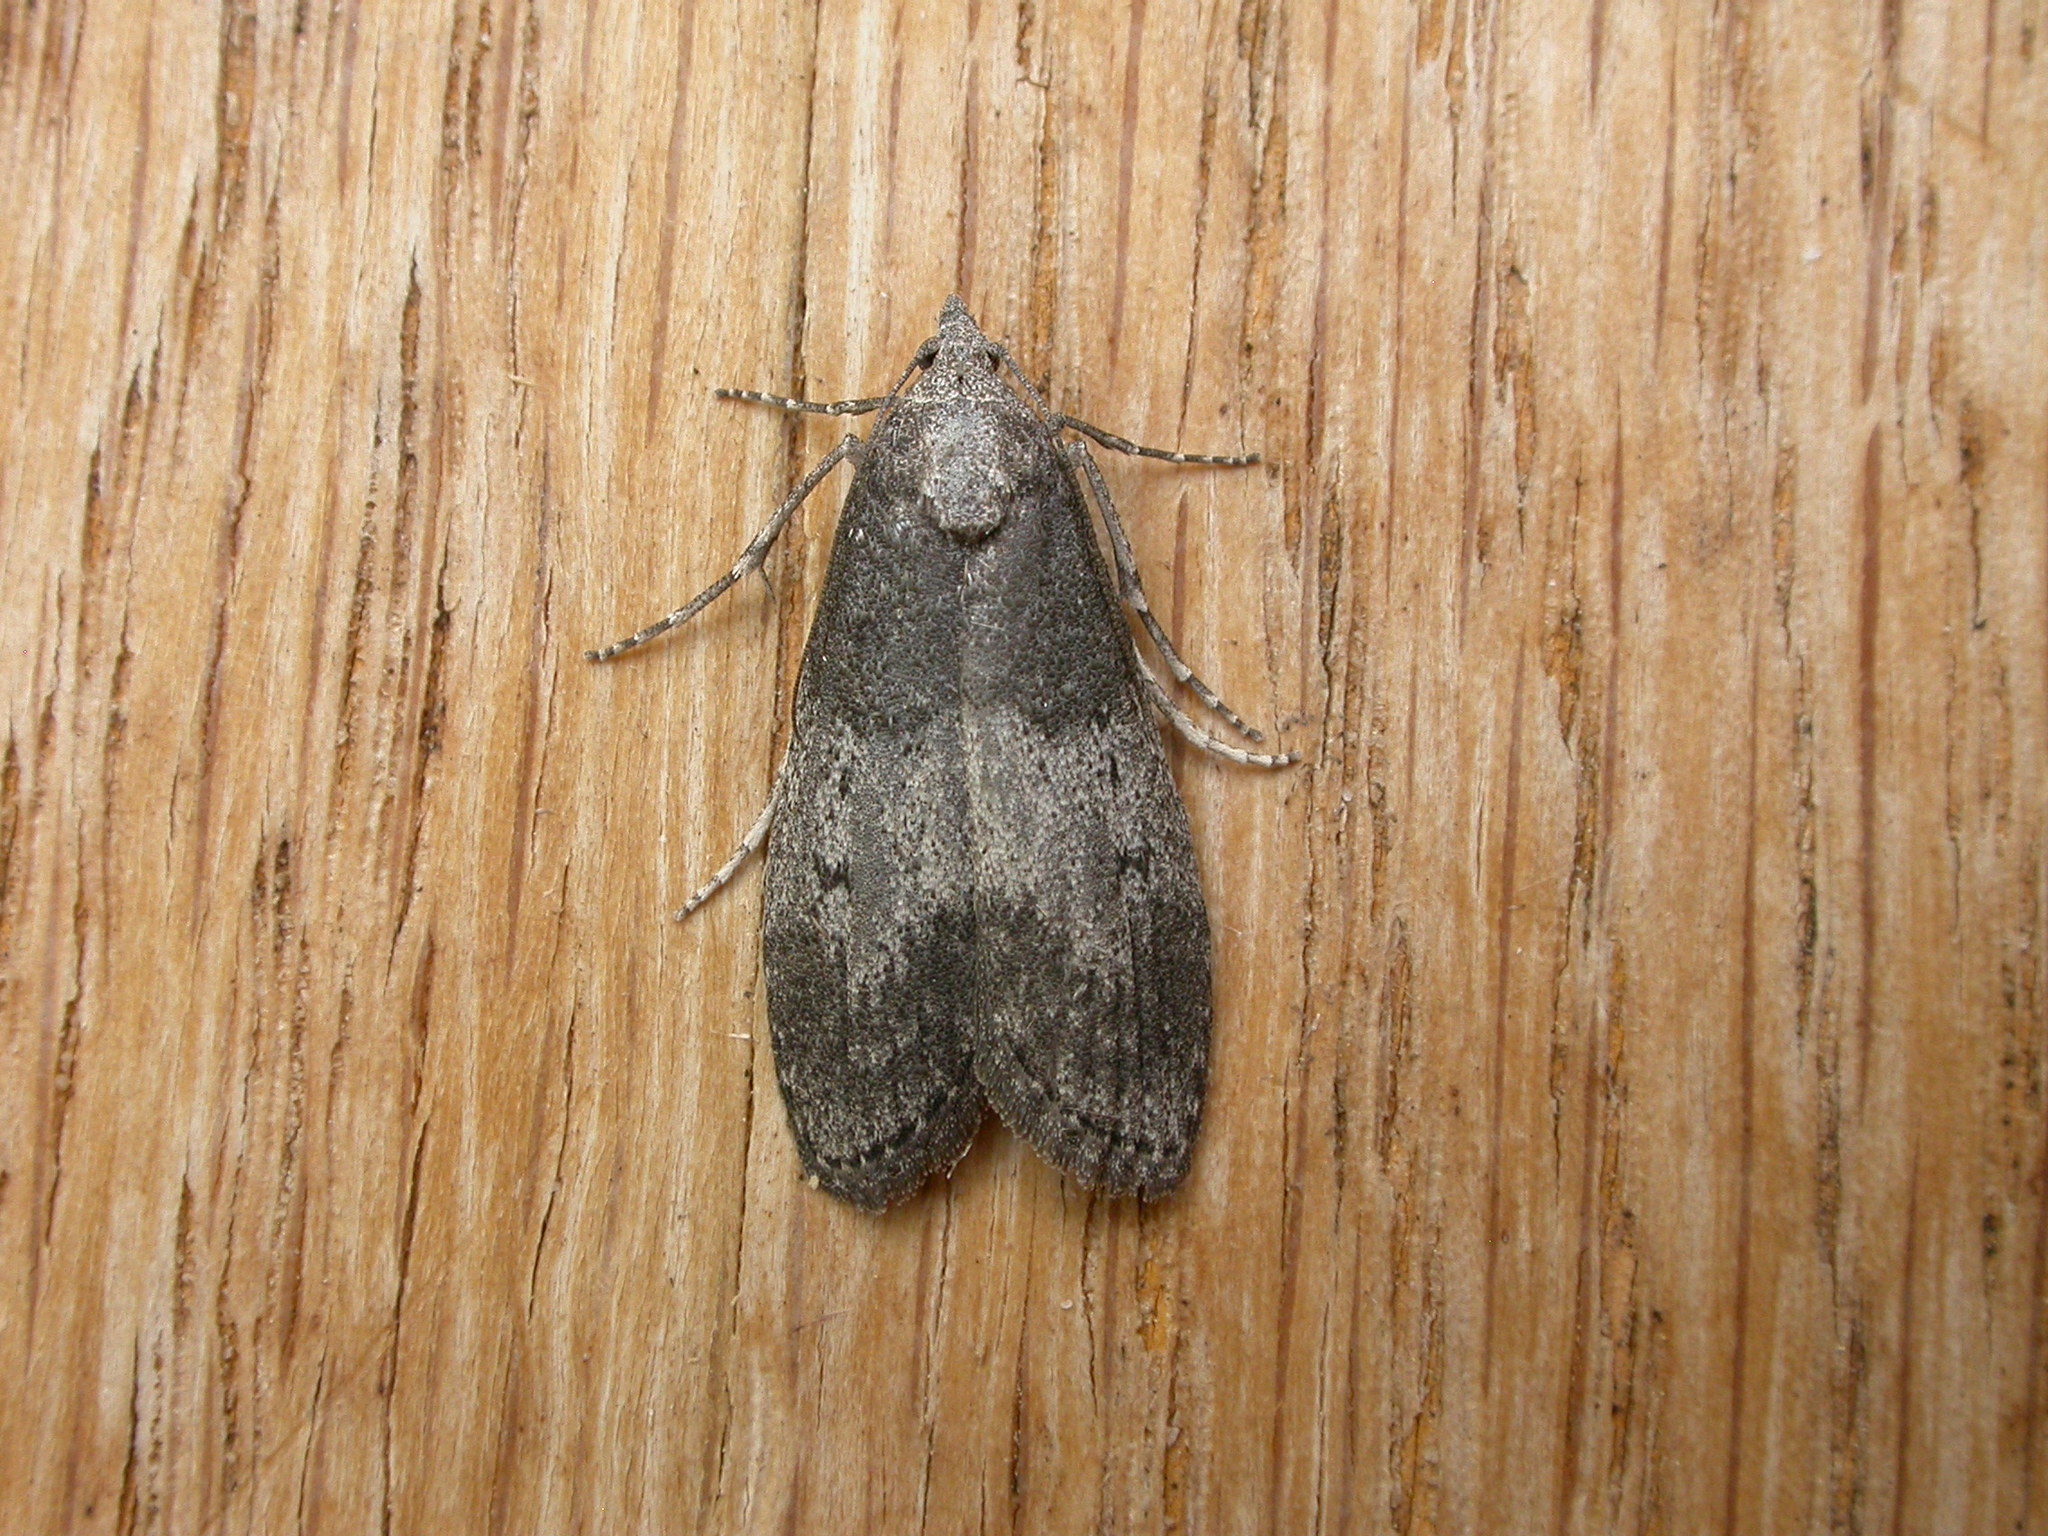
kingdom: Animalia
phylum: Arthropoda
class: Insecta
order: Lepidoptera
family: Pyralidae
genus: Aphomia
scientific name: Aphomia baryptera
